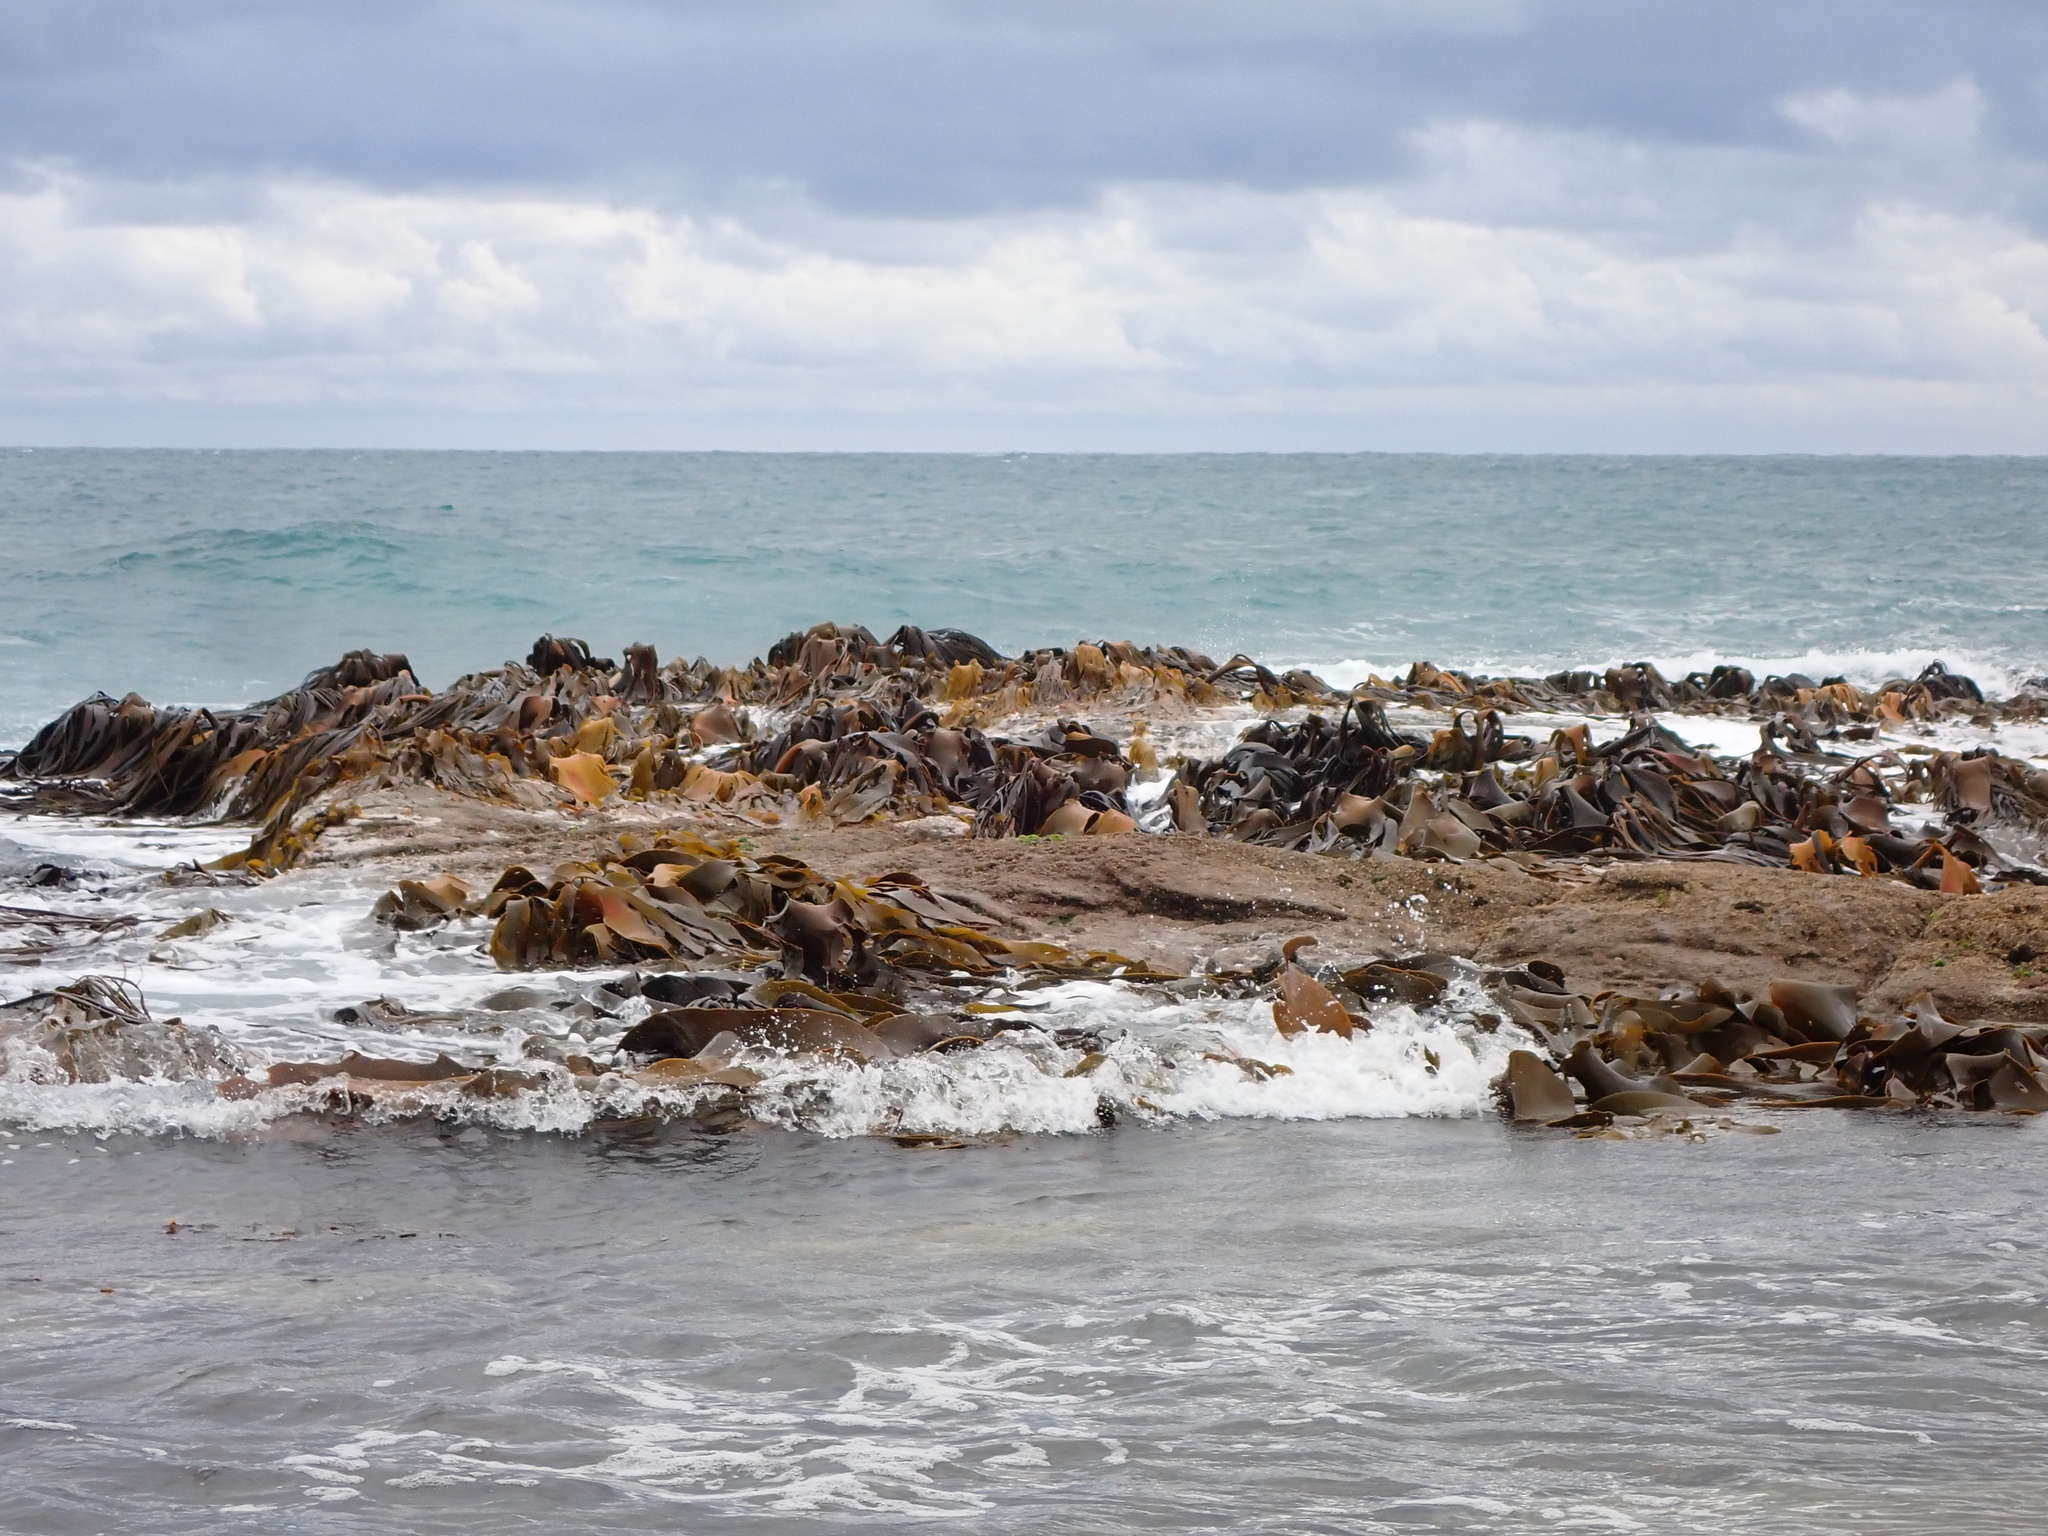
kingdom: Chromista
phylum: Ochrophyta
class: Phaeophyceae
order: Fucales
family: Durvillaeaceae
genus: Durvillaea
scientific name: Durvillaea willana
